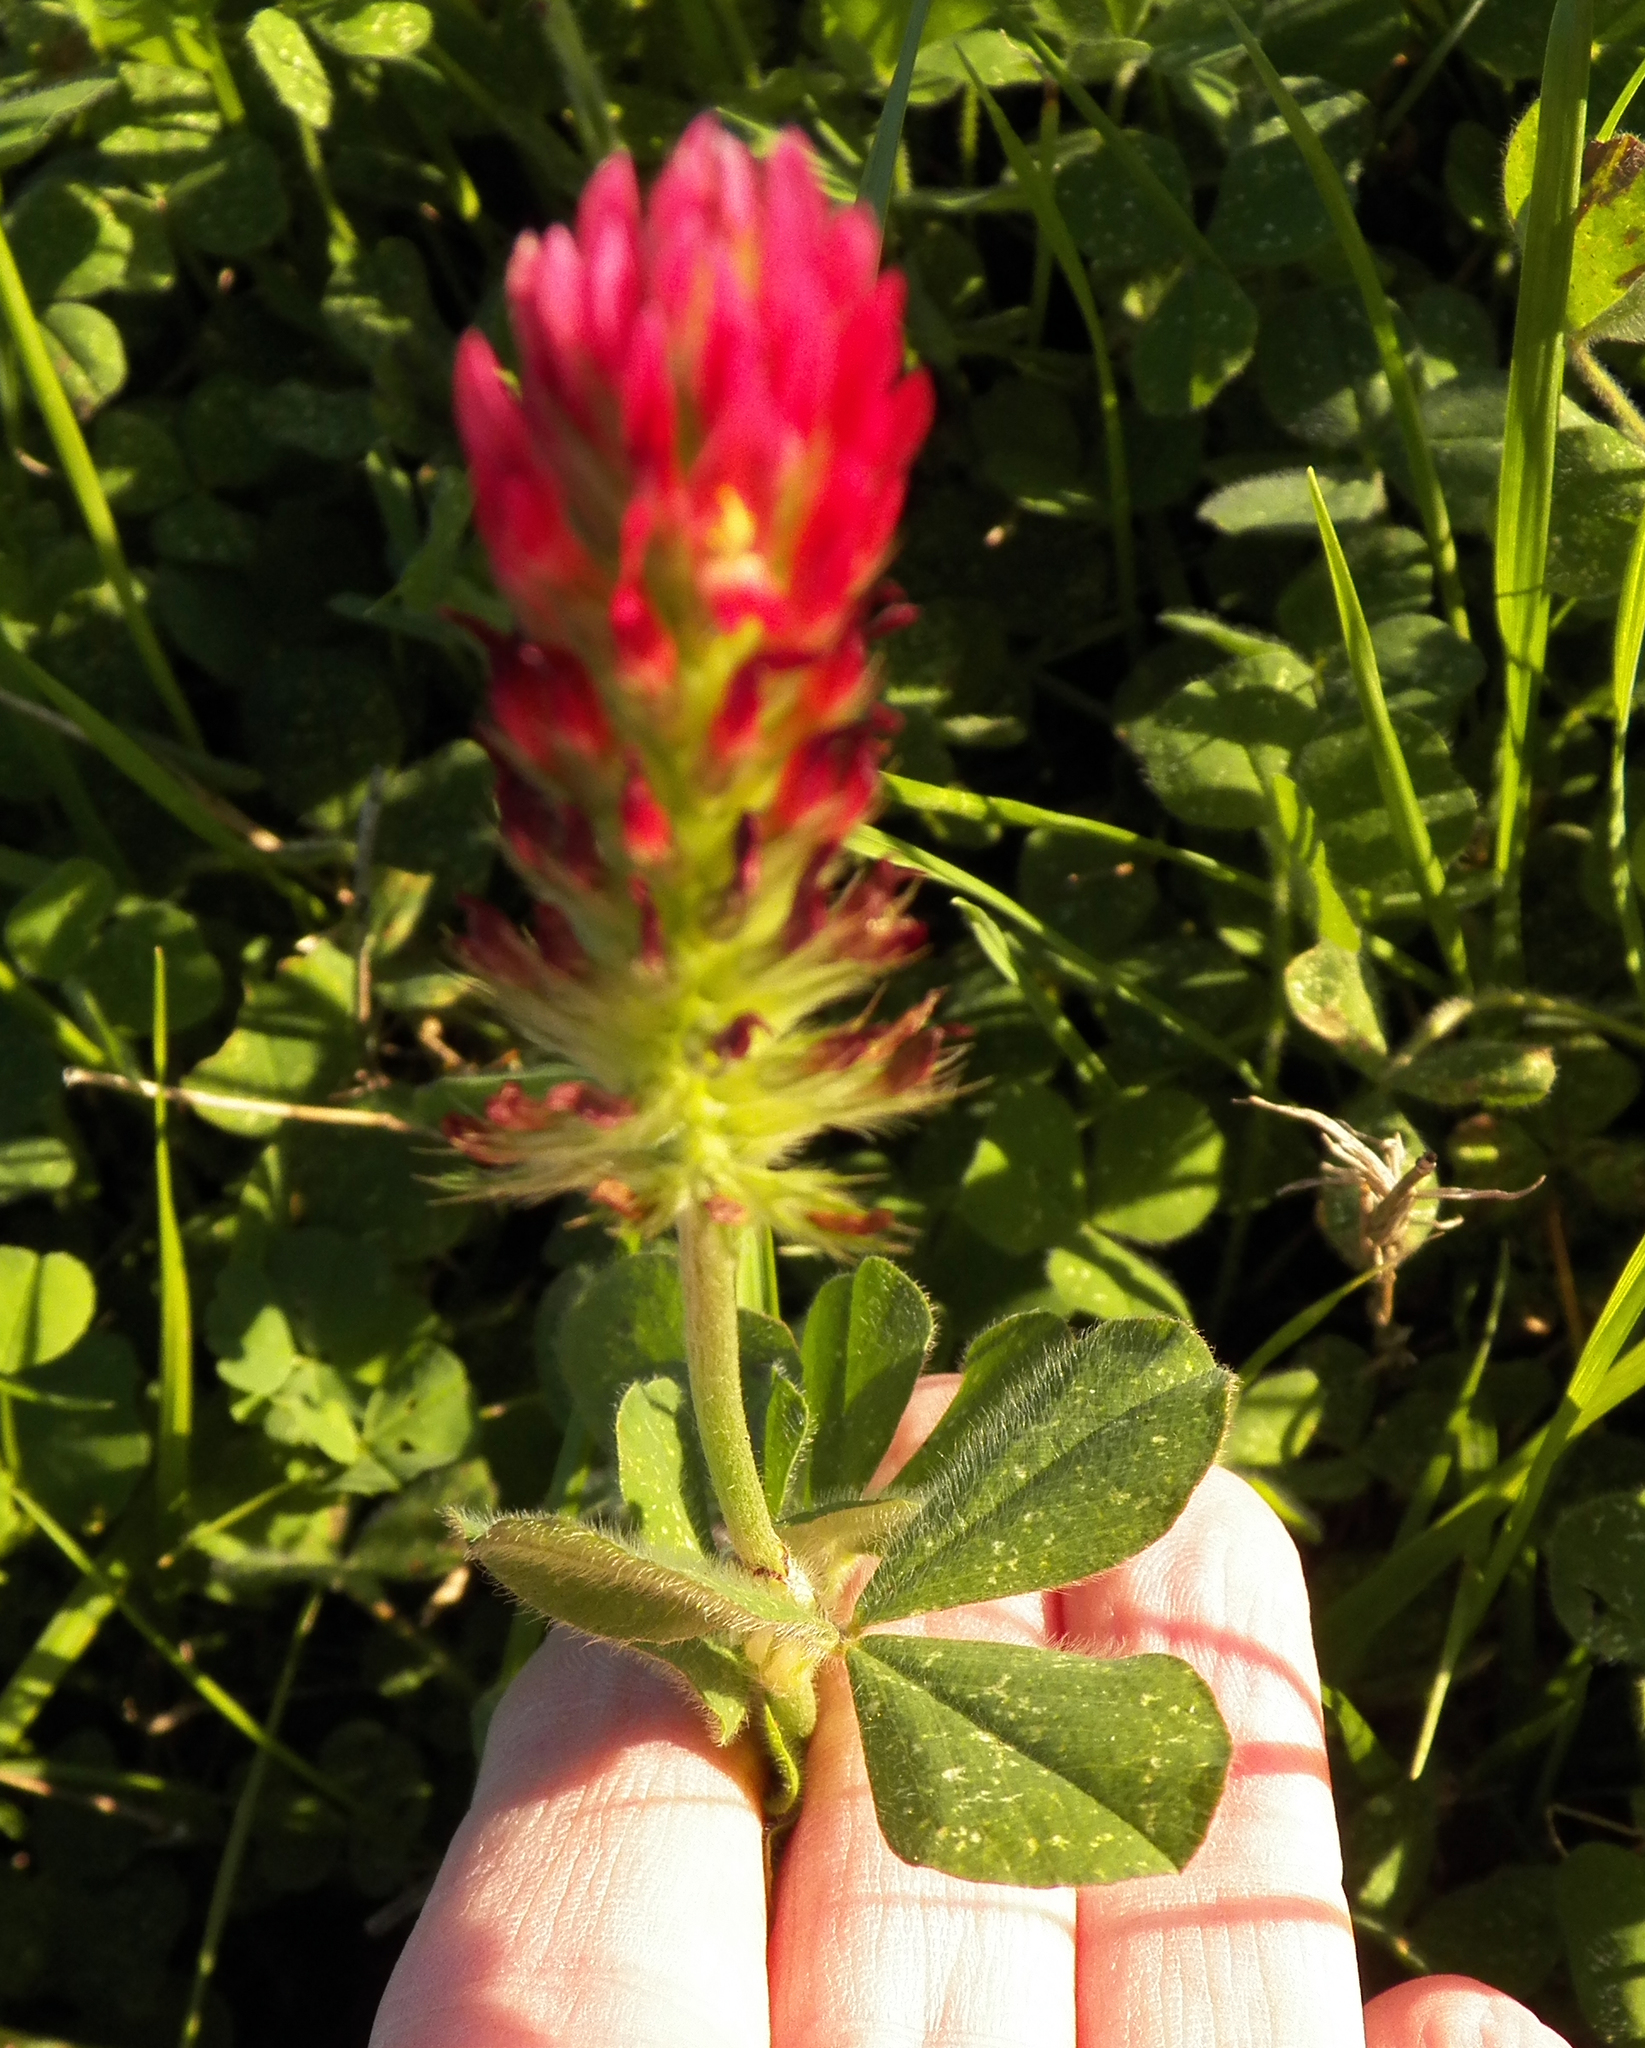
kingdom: Plantae
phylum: Tracheophyta
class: Magnoliopsida
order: Fabales
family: Fabaceae
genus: Trifolium
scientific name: Trifolium incarnatum
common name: Crimson clover
